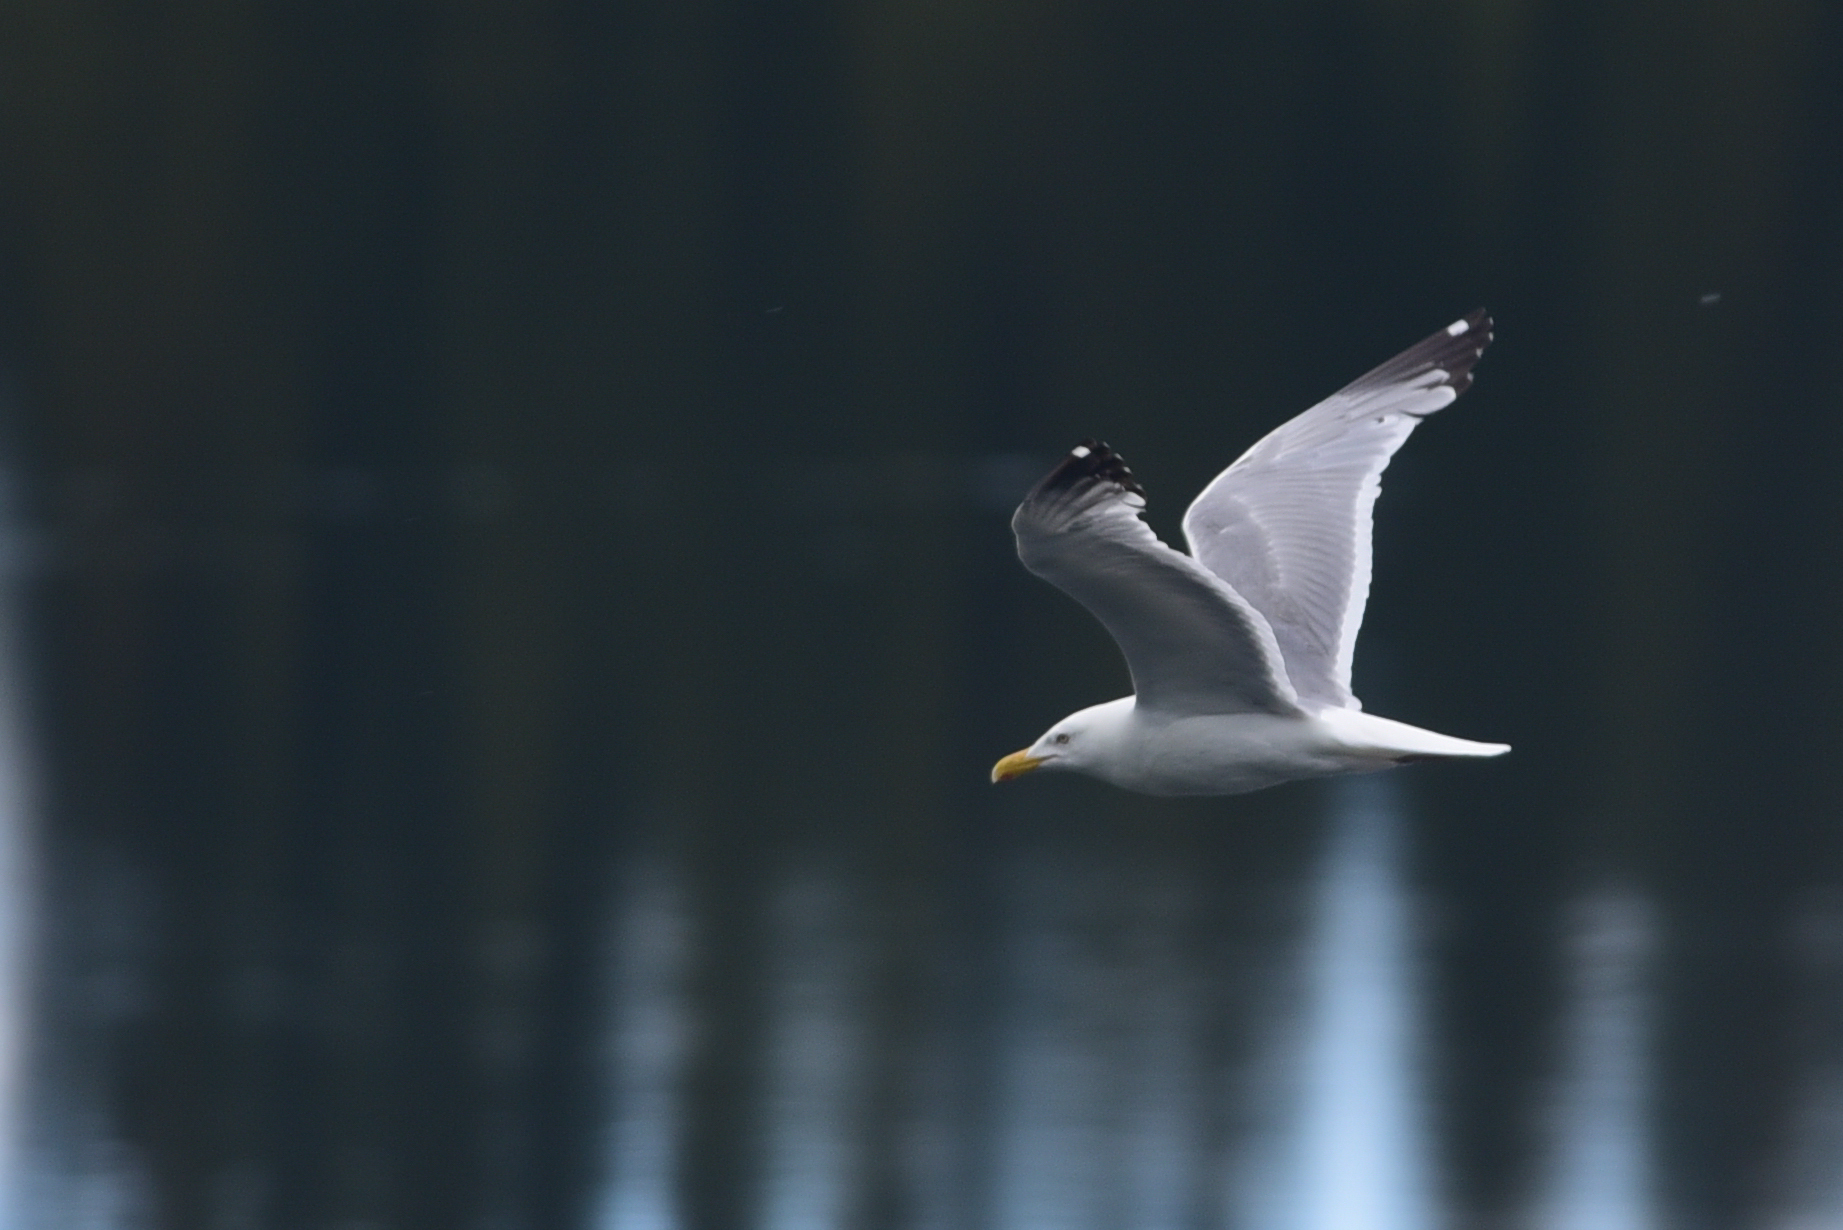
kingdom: Animalia
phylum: Chordata
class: Aves
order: Charadriiformes
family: Laridae
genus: Larus
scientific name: Larus argentatus
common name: Herring gull
